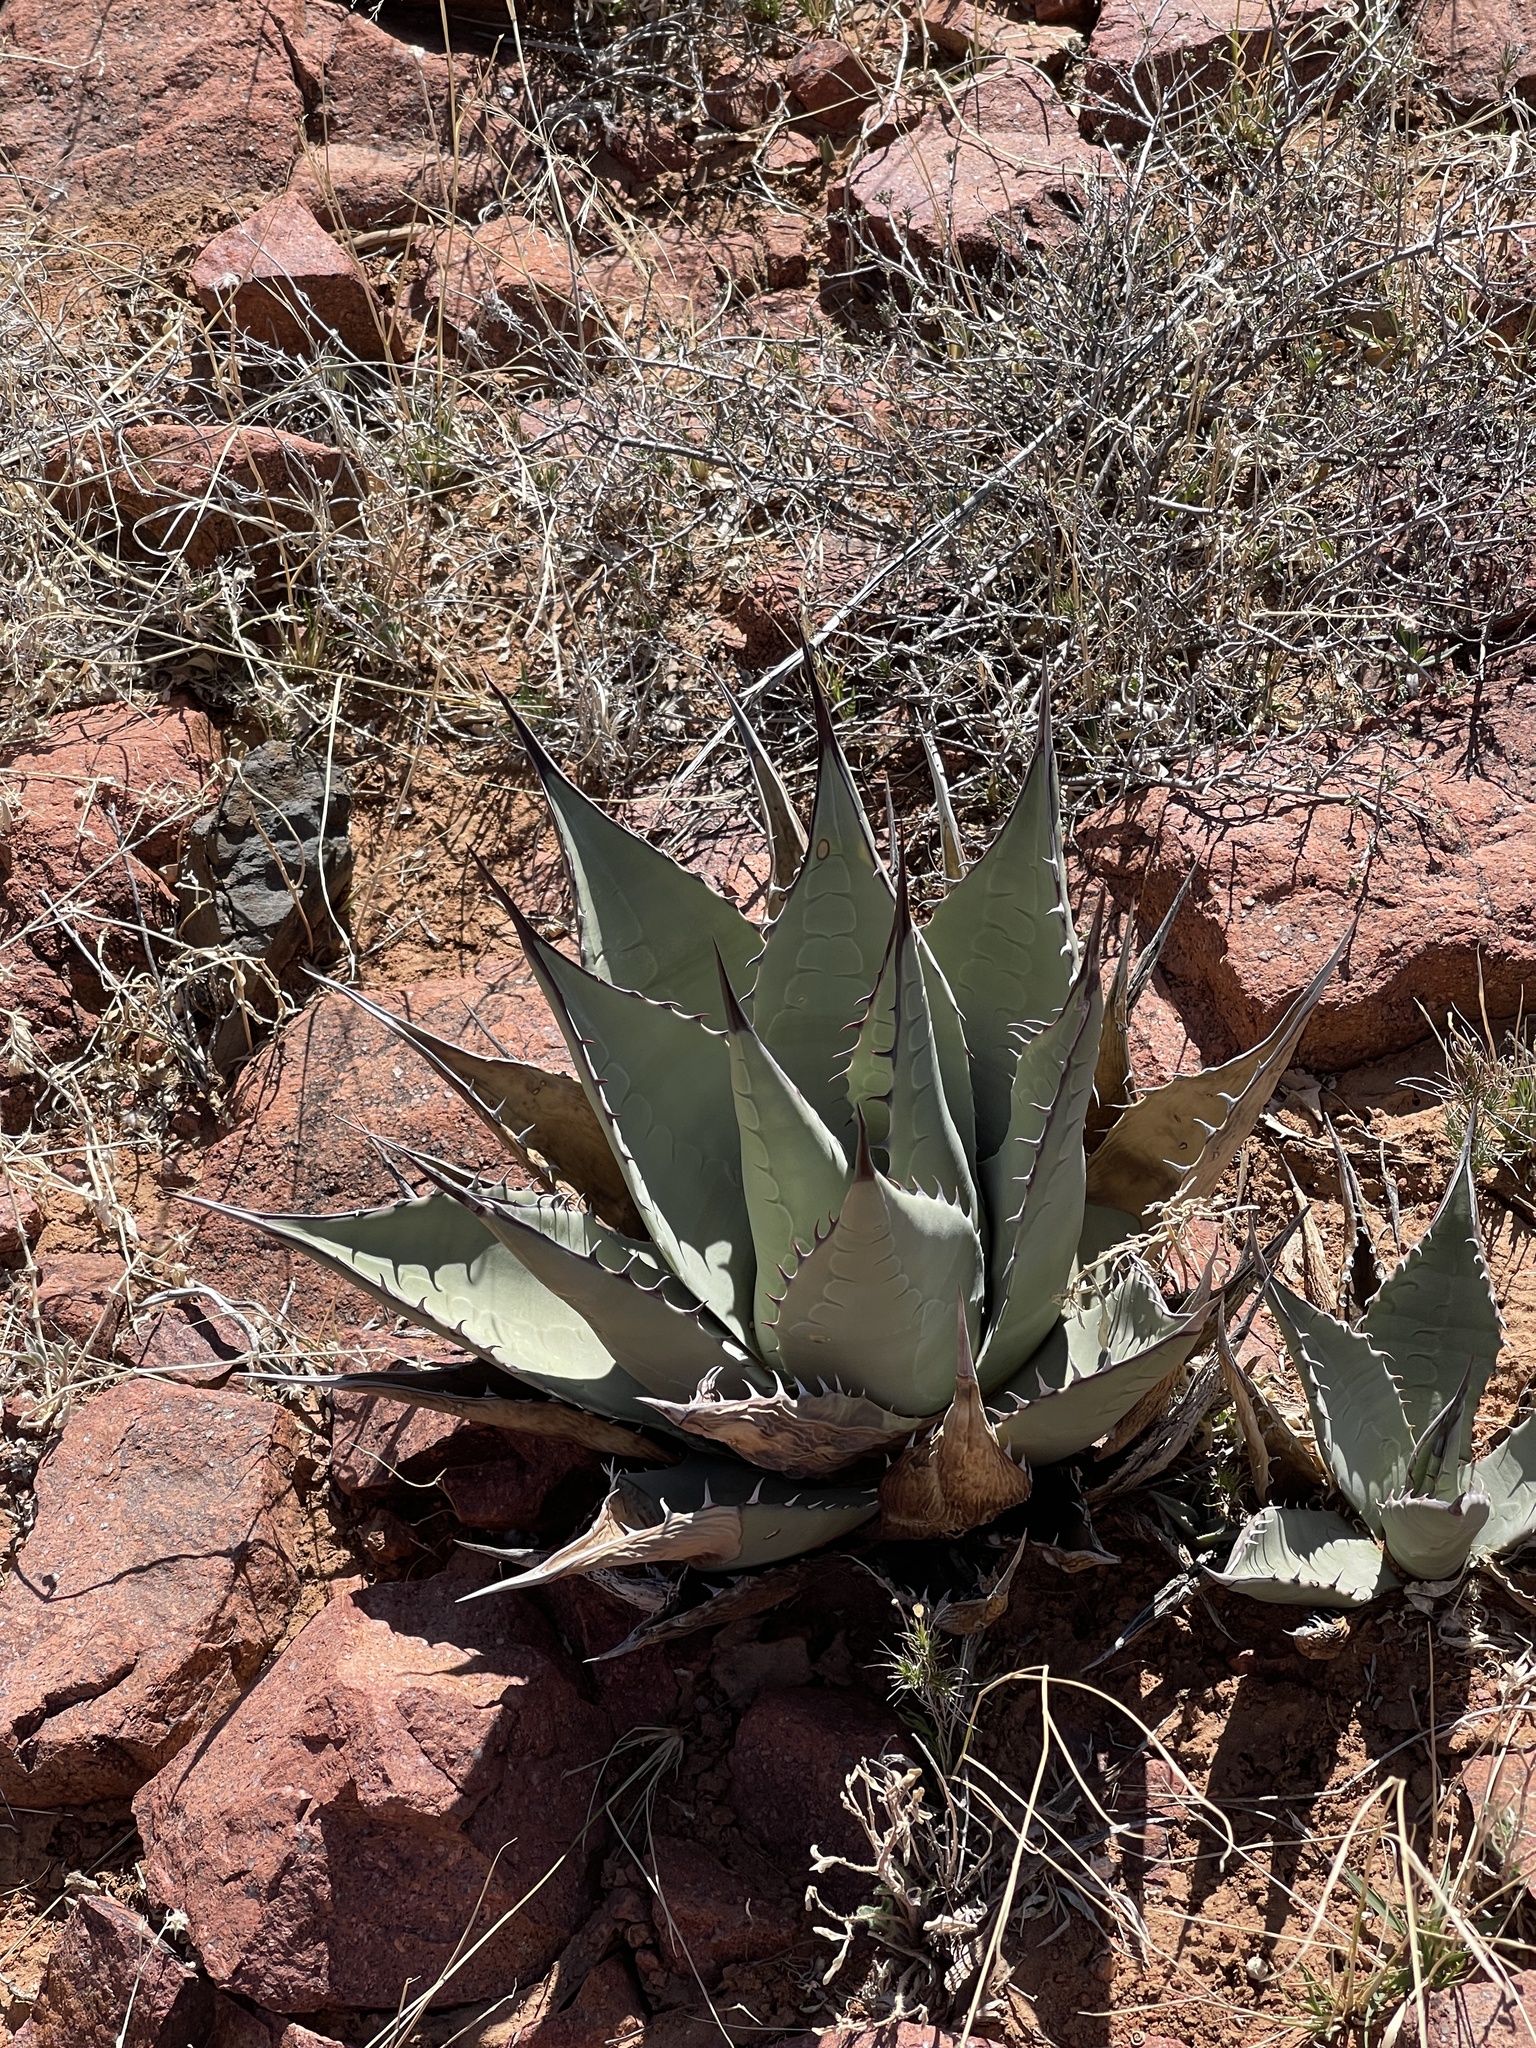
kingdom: Plantae
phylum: Tracheophyta
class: Liliopsida
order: Asparagales
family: Asparagaceae
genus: Agave
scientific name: Agave parryi
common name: Parry's agave
